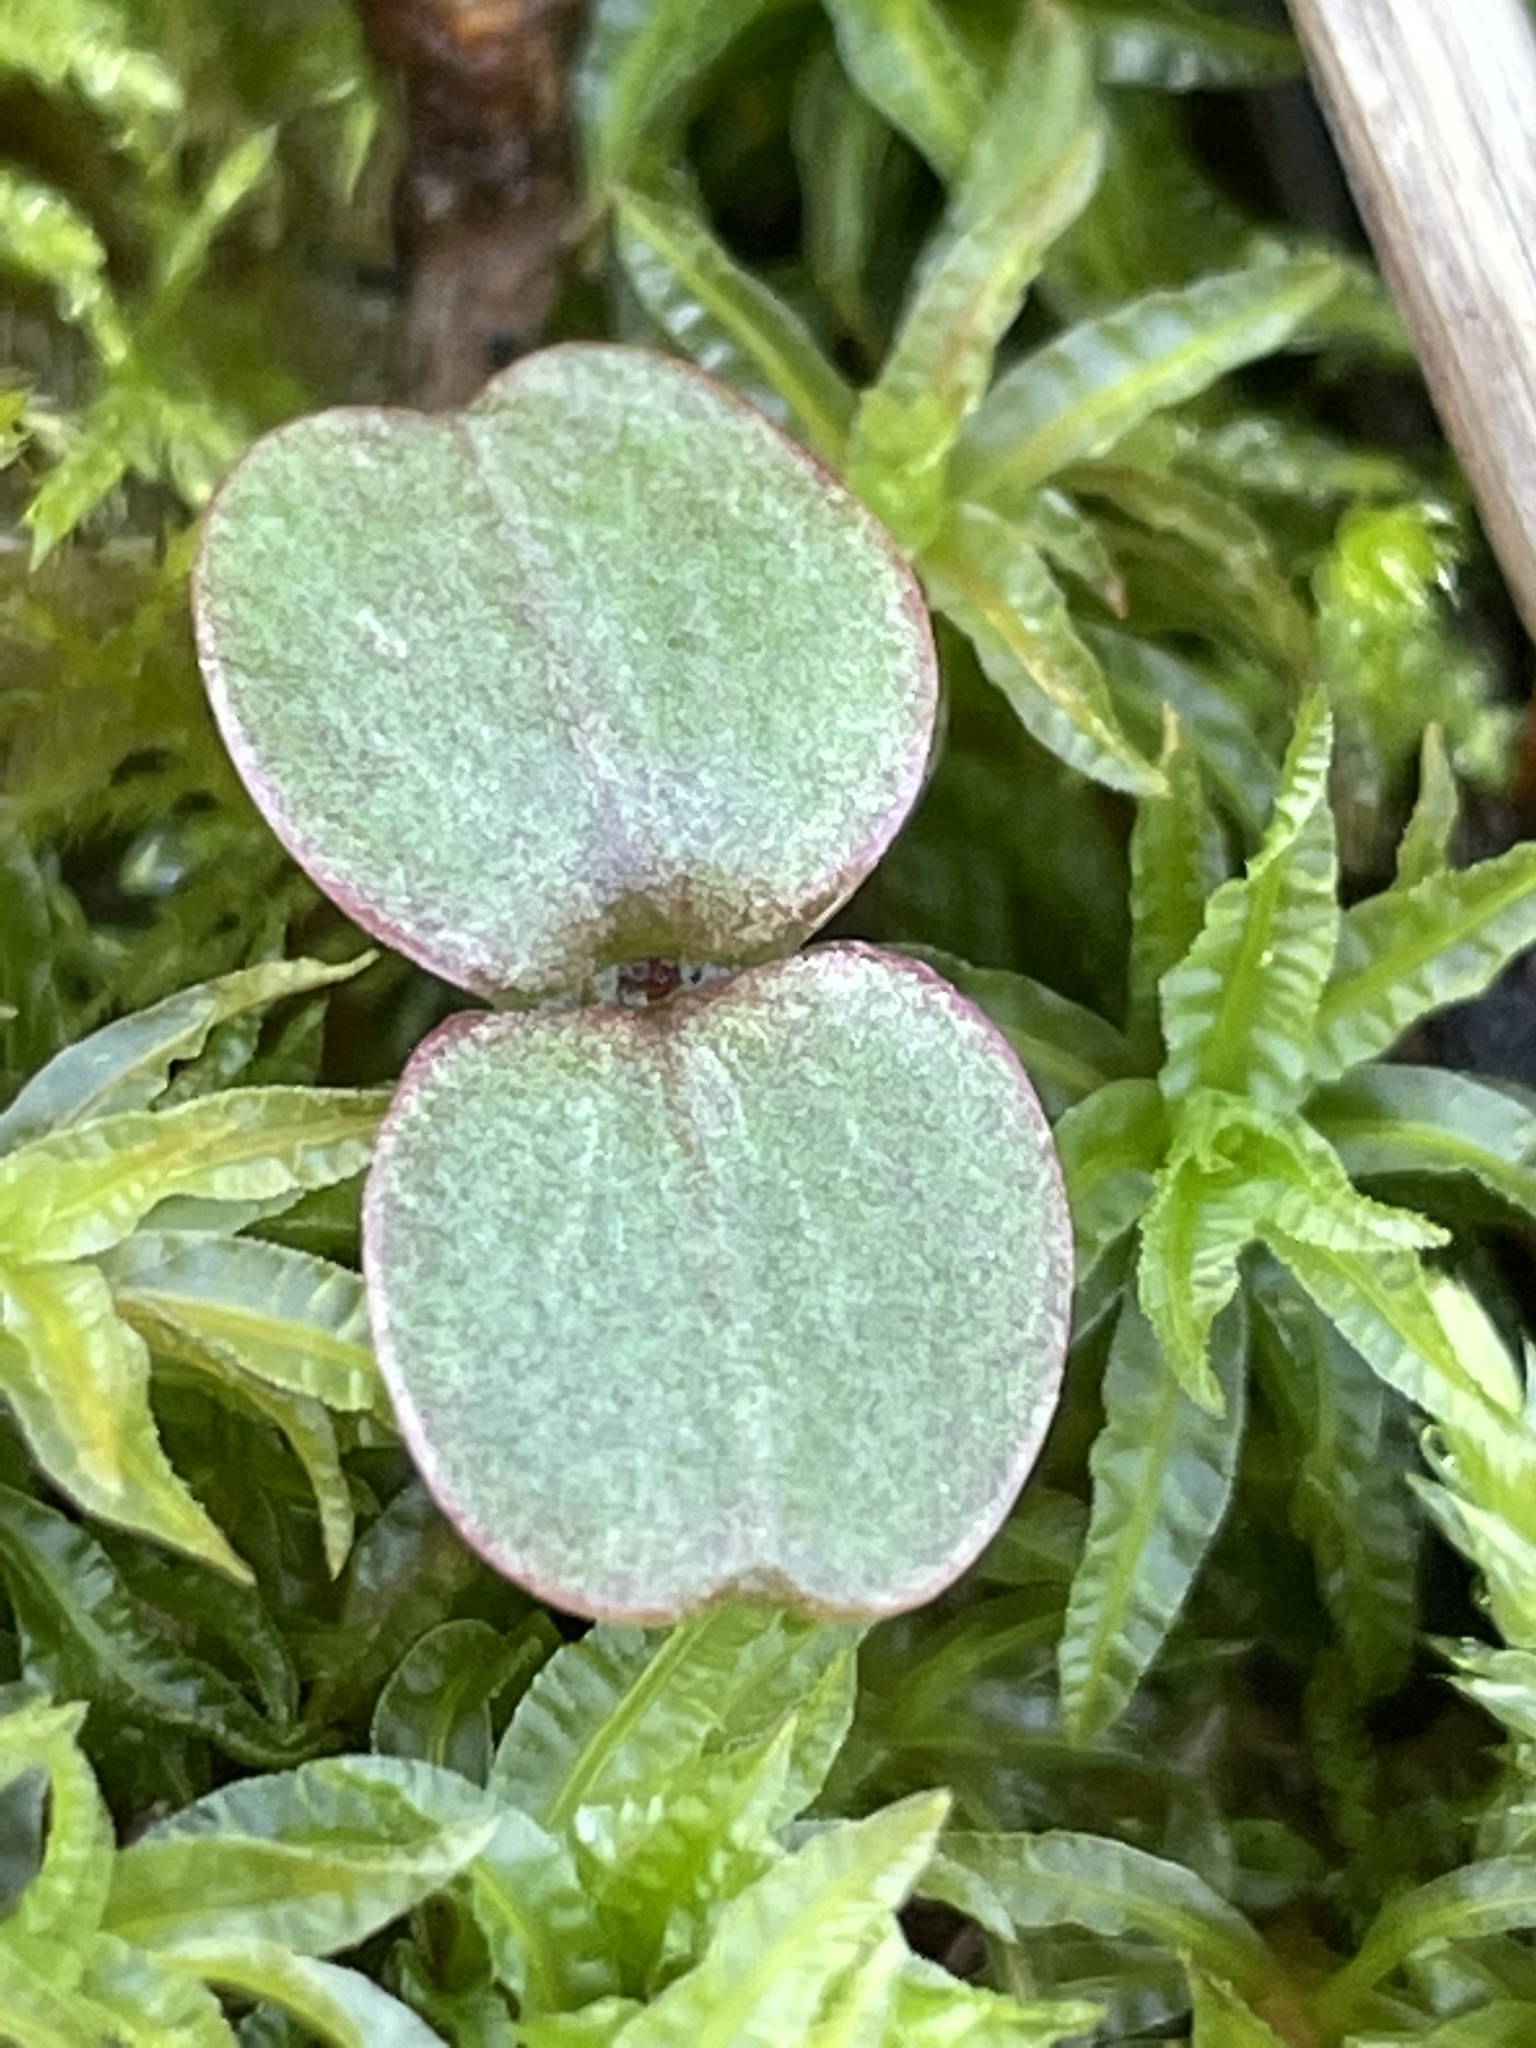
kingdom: Plantae
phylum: Tracheophyta
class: Magnoliopsida
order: Ericales
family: Balsaminaceae
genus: Impatiens
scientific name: Impatiens glandulifera
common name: Himalayan balsam
